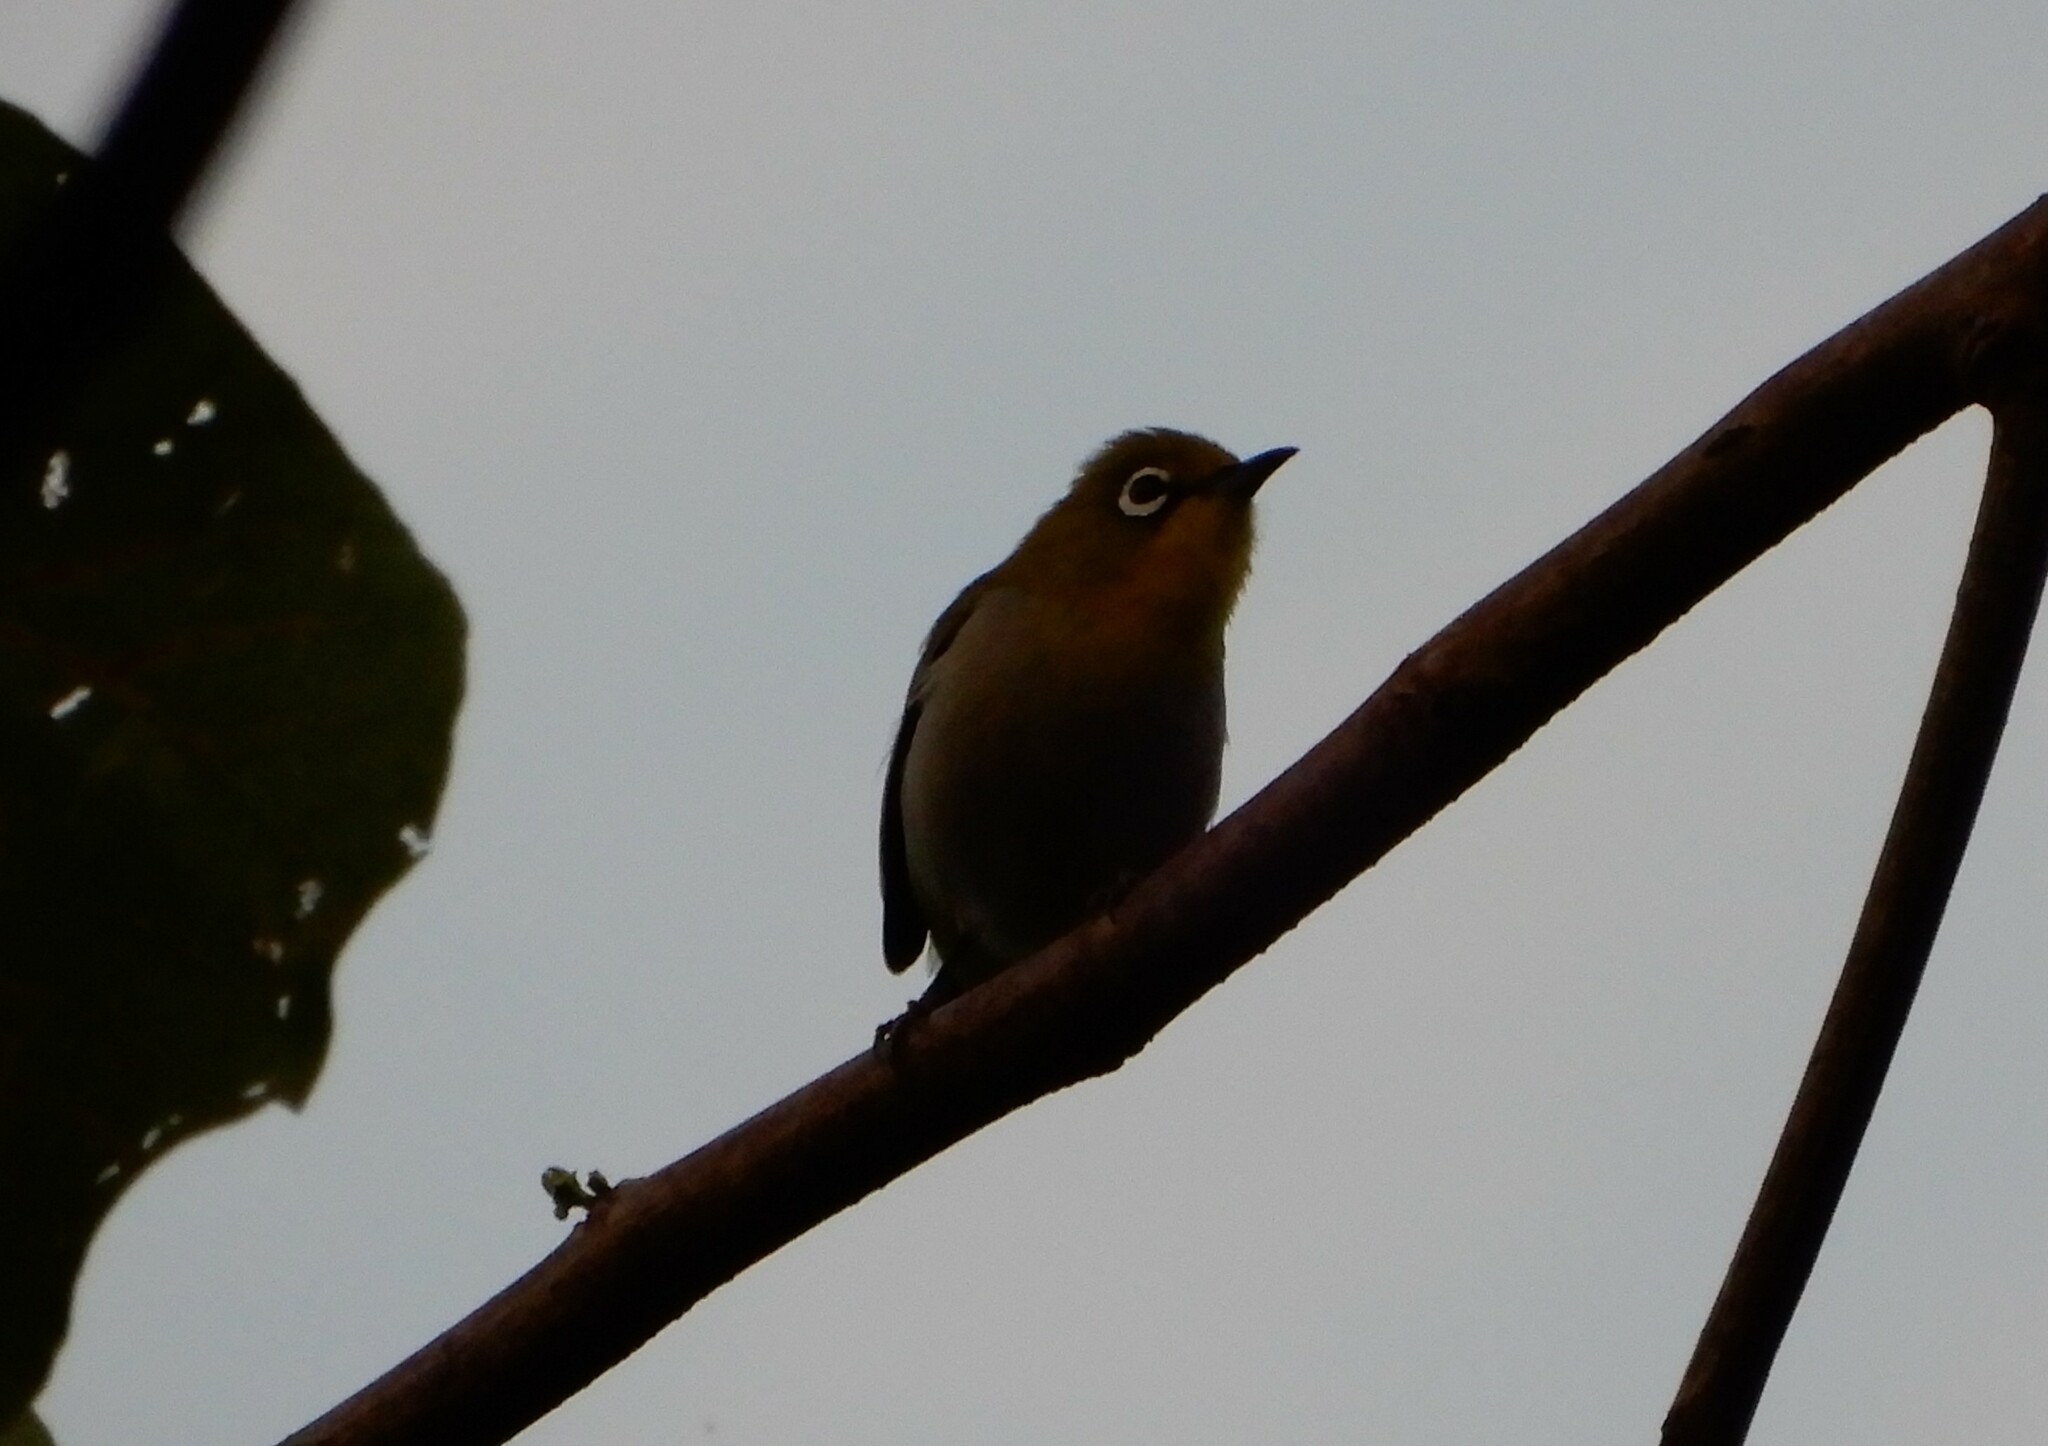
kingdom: Animalia
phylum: Chordata
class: Aves
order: Passeriformes
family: Zosteropidae
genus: Zosterops
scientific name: Zosterops simplex
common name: Swinhoe's white-eye
